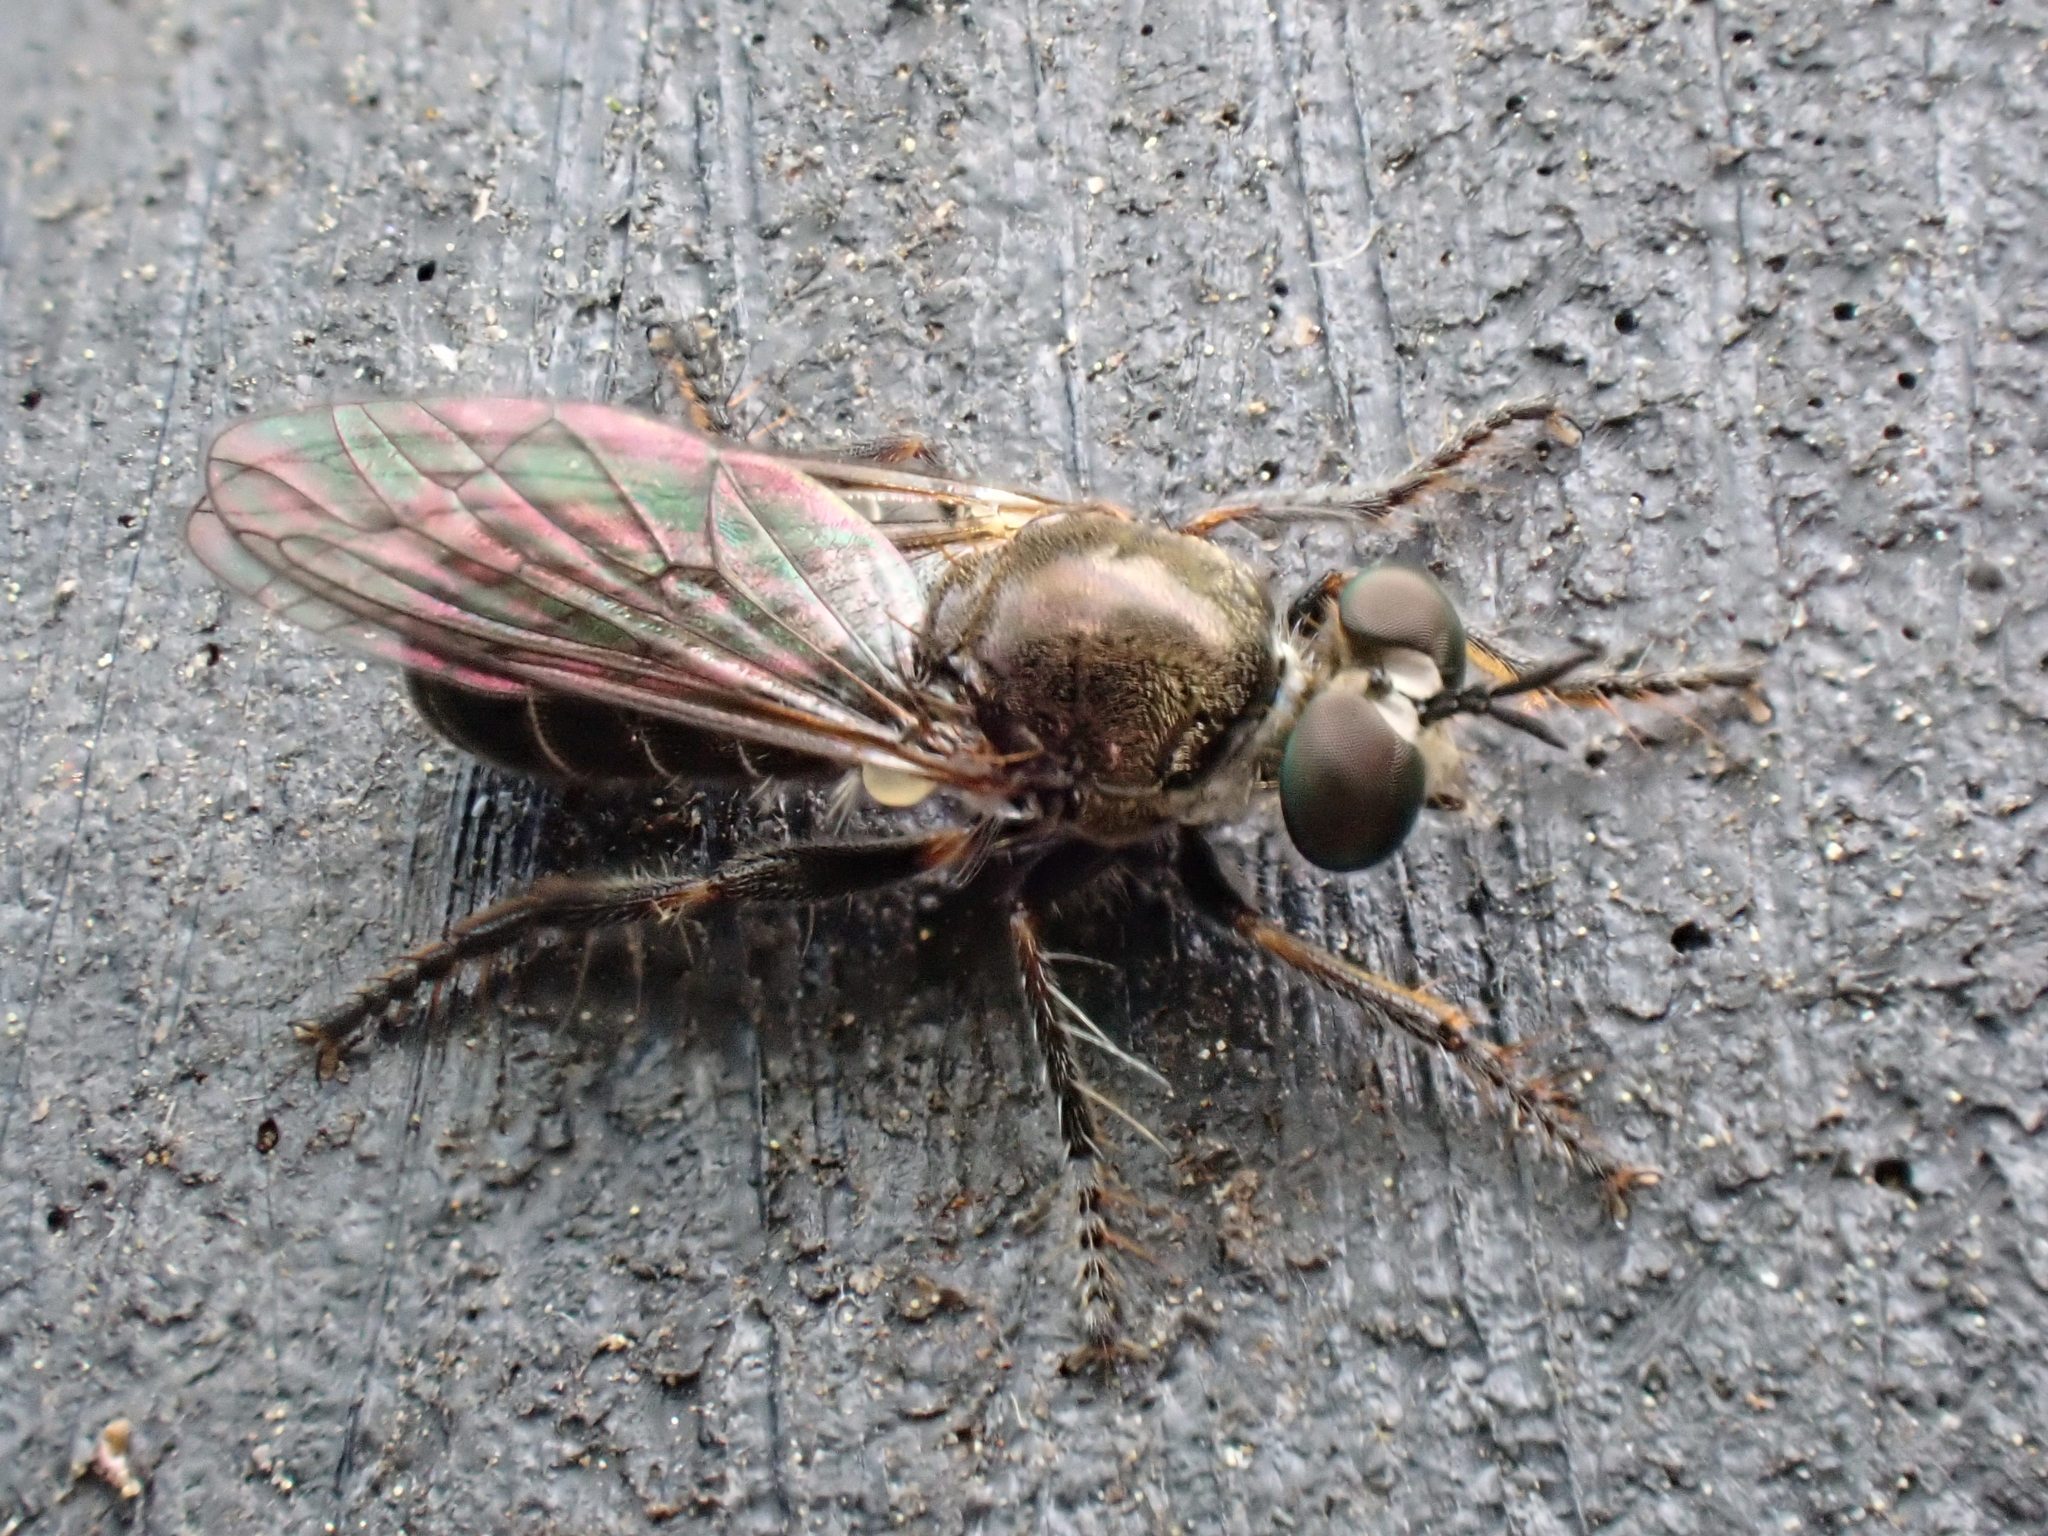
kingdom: Animalia
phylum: Arthropoda
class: Insecta
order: Diptera
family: Asilidae
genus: Atomosia
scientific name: Atomosia puella
